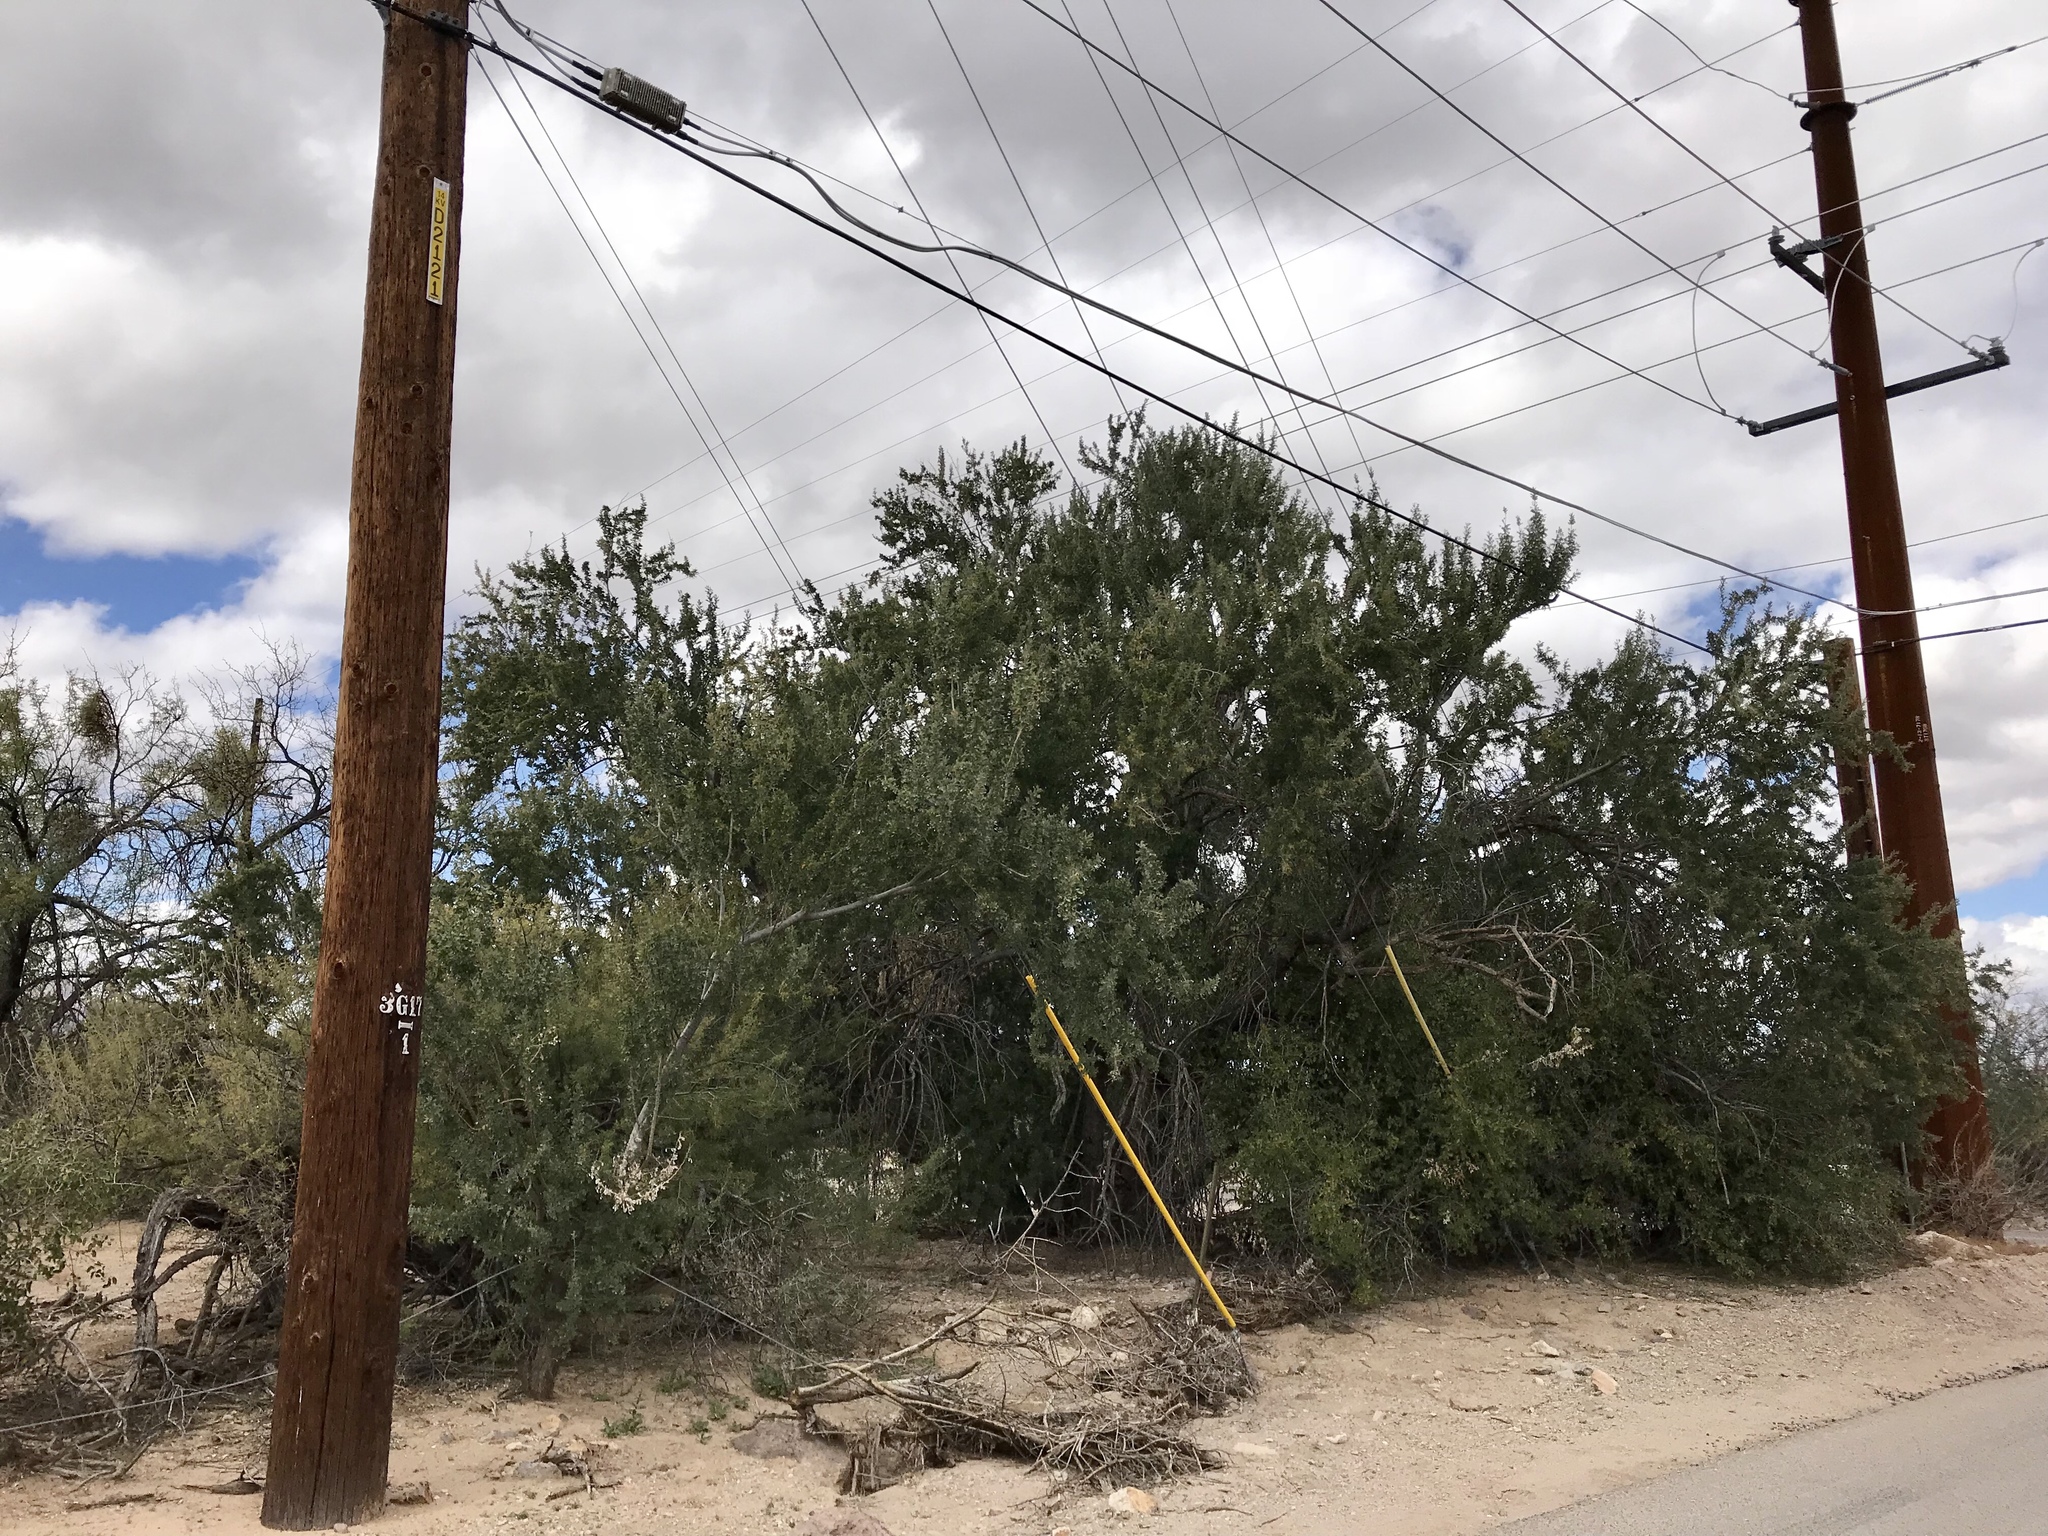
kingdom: Plantae
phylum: Tracheophyta
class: Magnoliopsida
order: Fabales
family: Fabaceae
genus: Olneya
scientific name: Olneya tesota
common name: Desert ironwood
